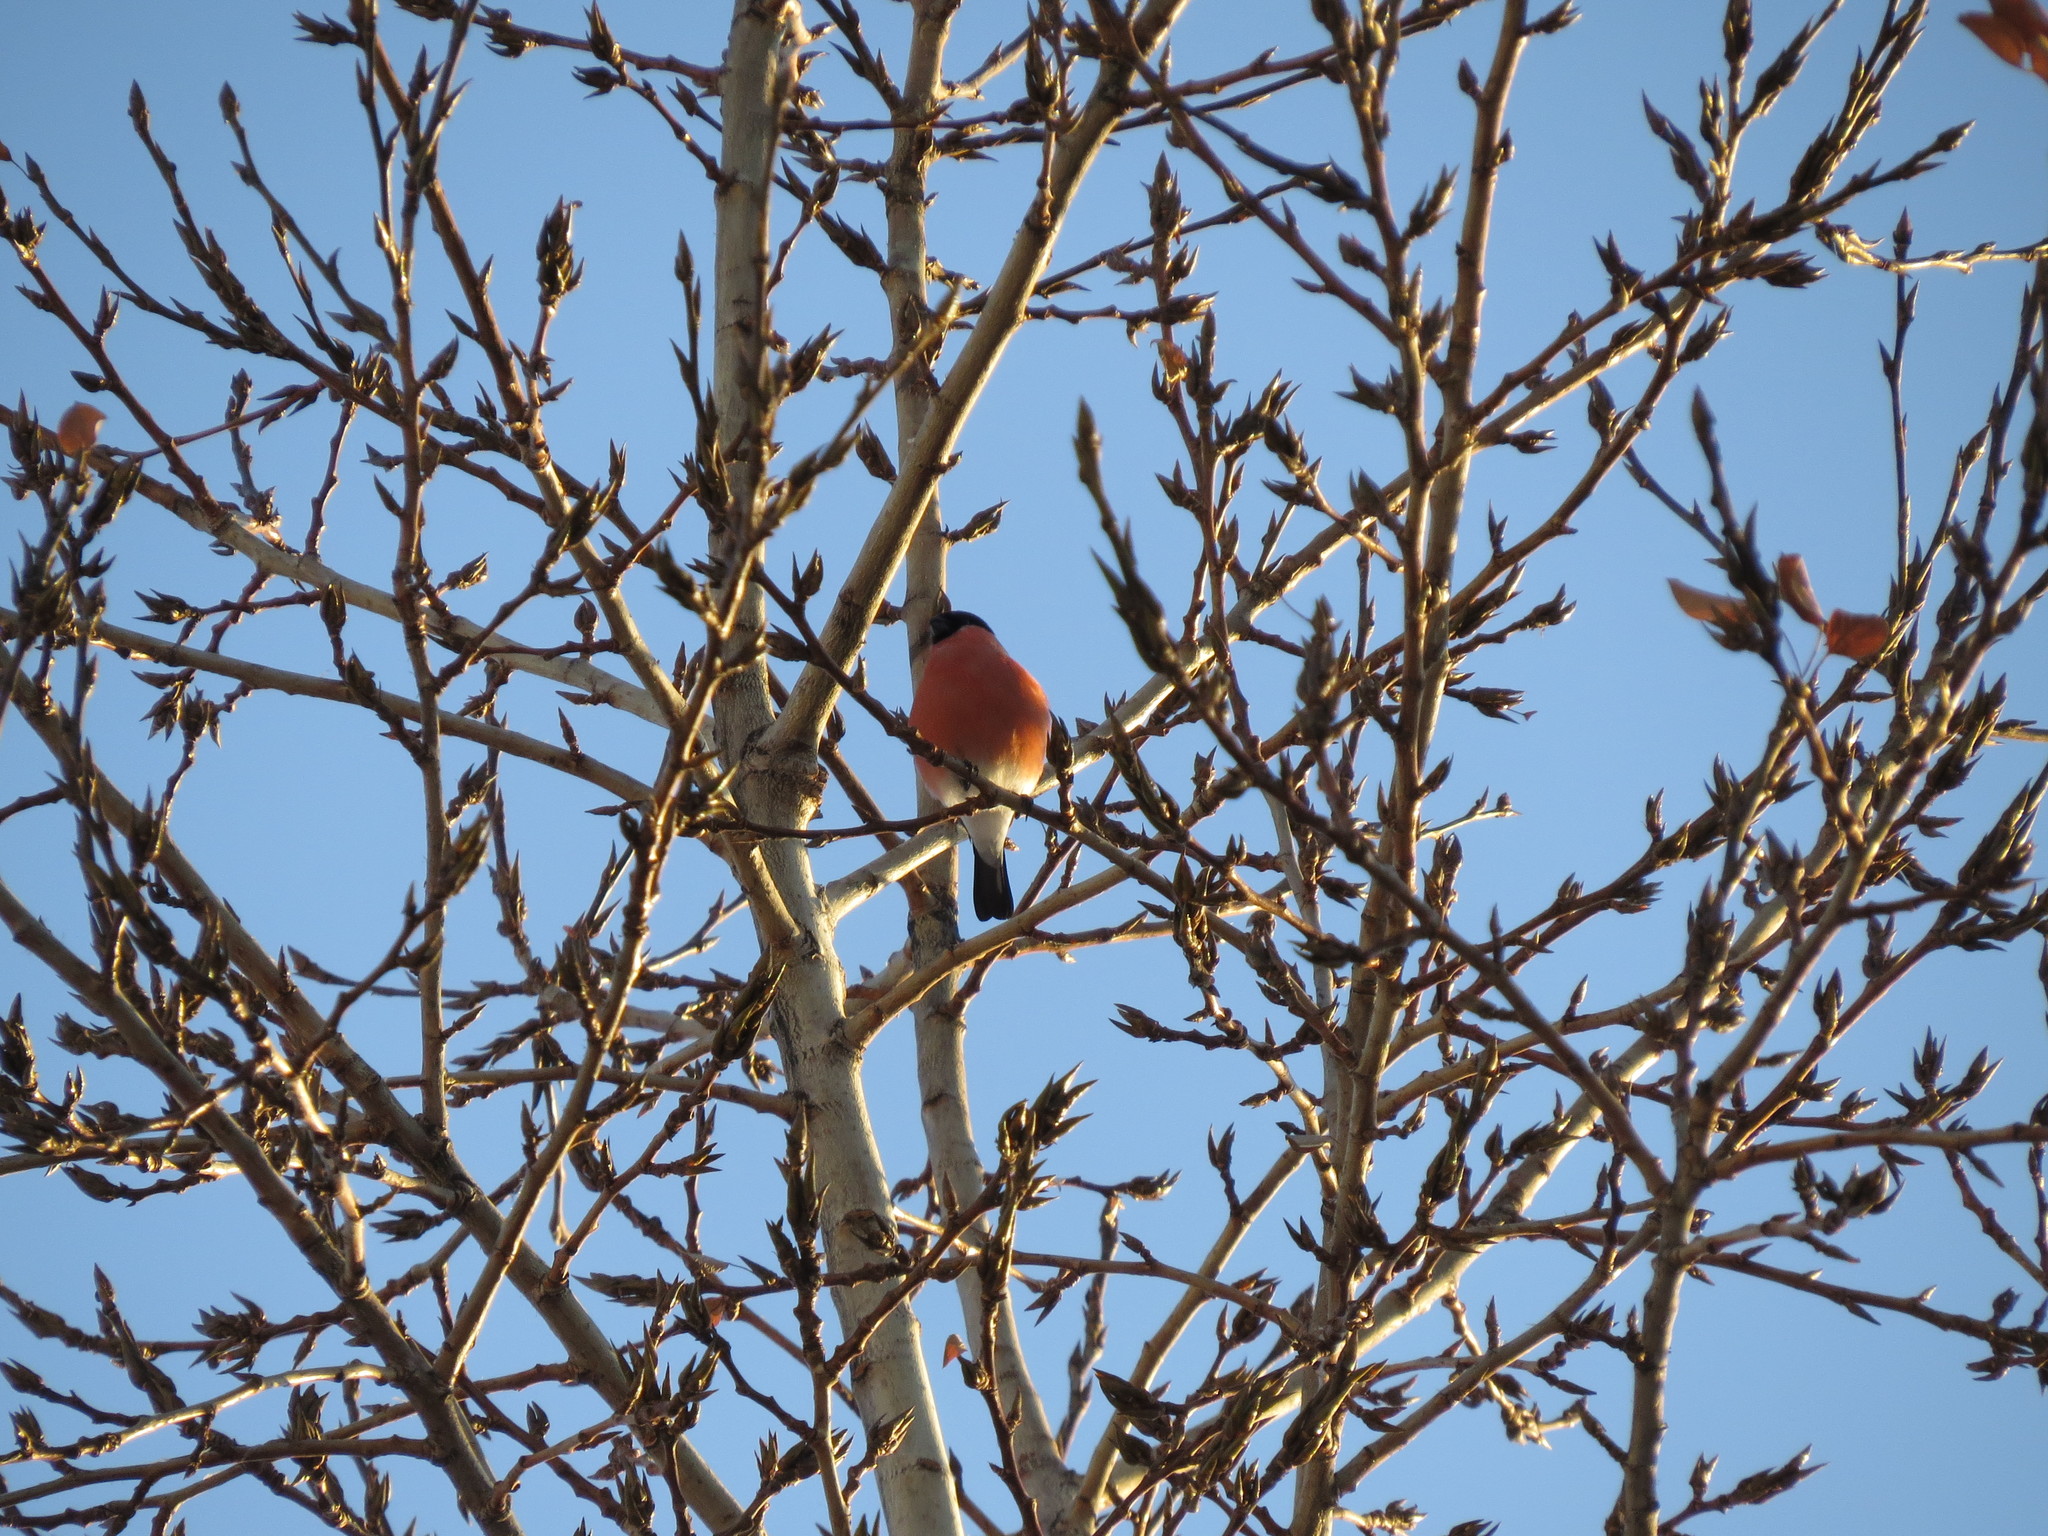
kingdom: Animalia
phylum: Chordata
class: Aves
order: Passeriformes
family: Fringillidae
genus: Pyrrhula
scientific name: Pyrrhula pyrrhula
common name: Eurasian bullfinch
